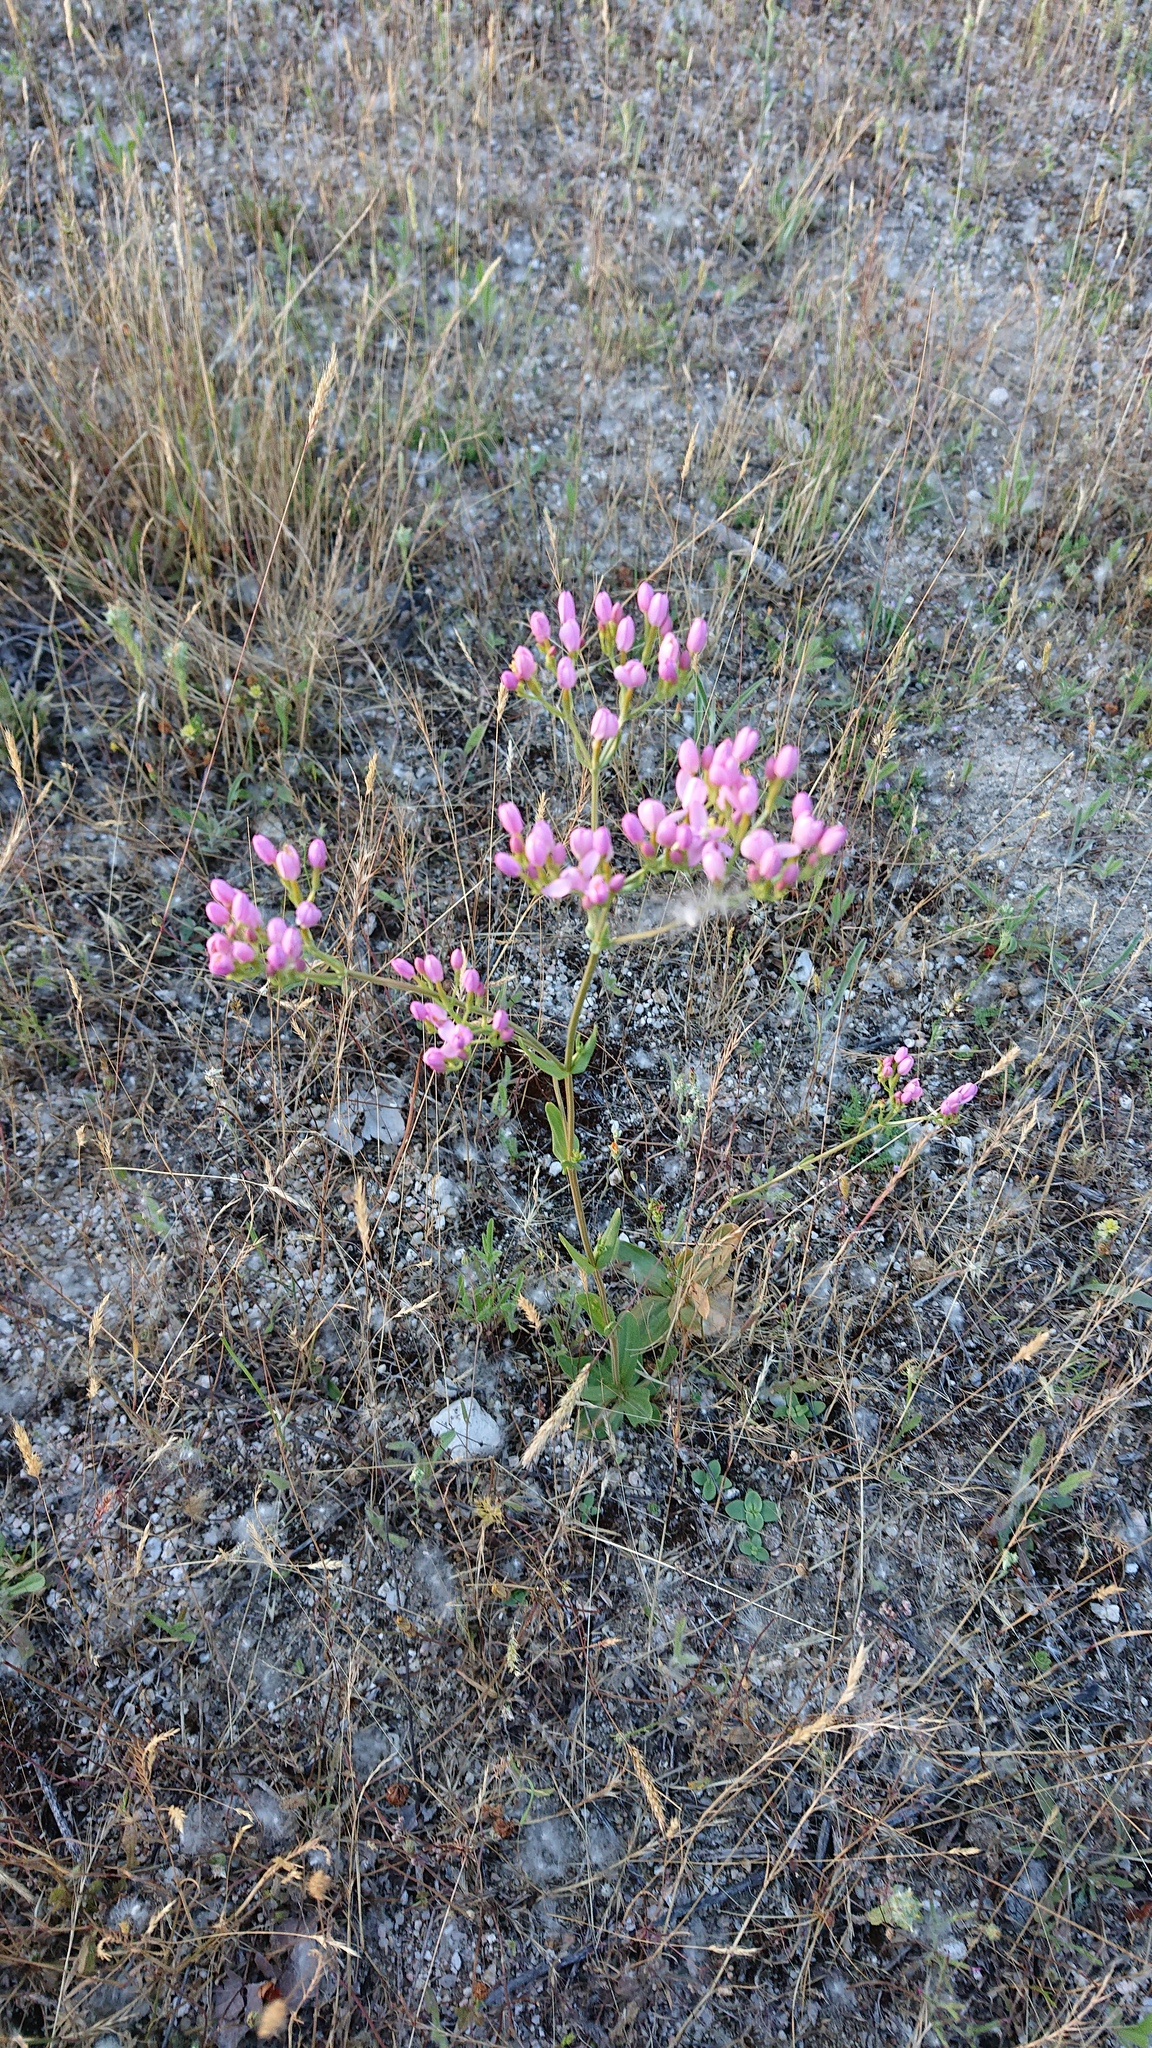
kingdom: Plantae
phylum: Tracheophyta
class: Magnoliopsida
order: Gentianales
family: Gentianaceae
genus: Centaurium
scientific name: Centaurium grandiflorum
